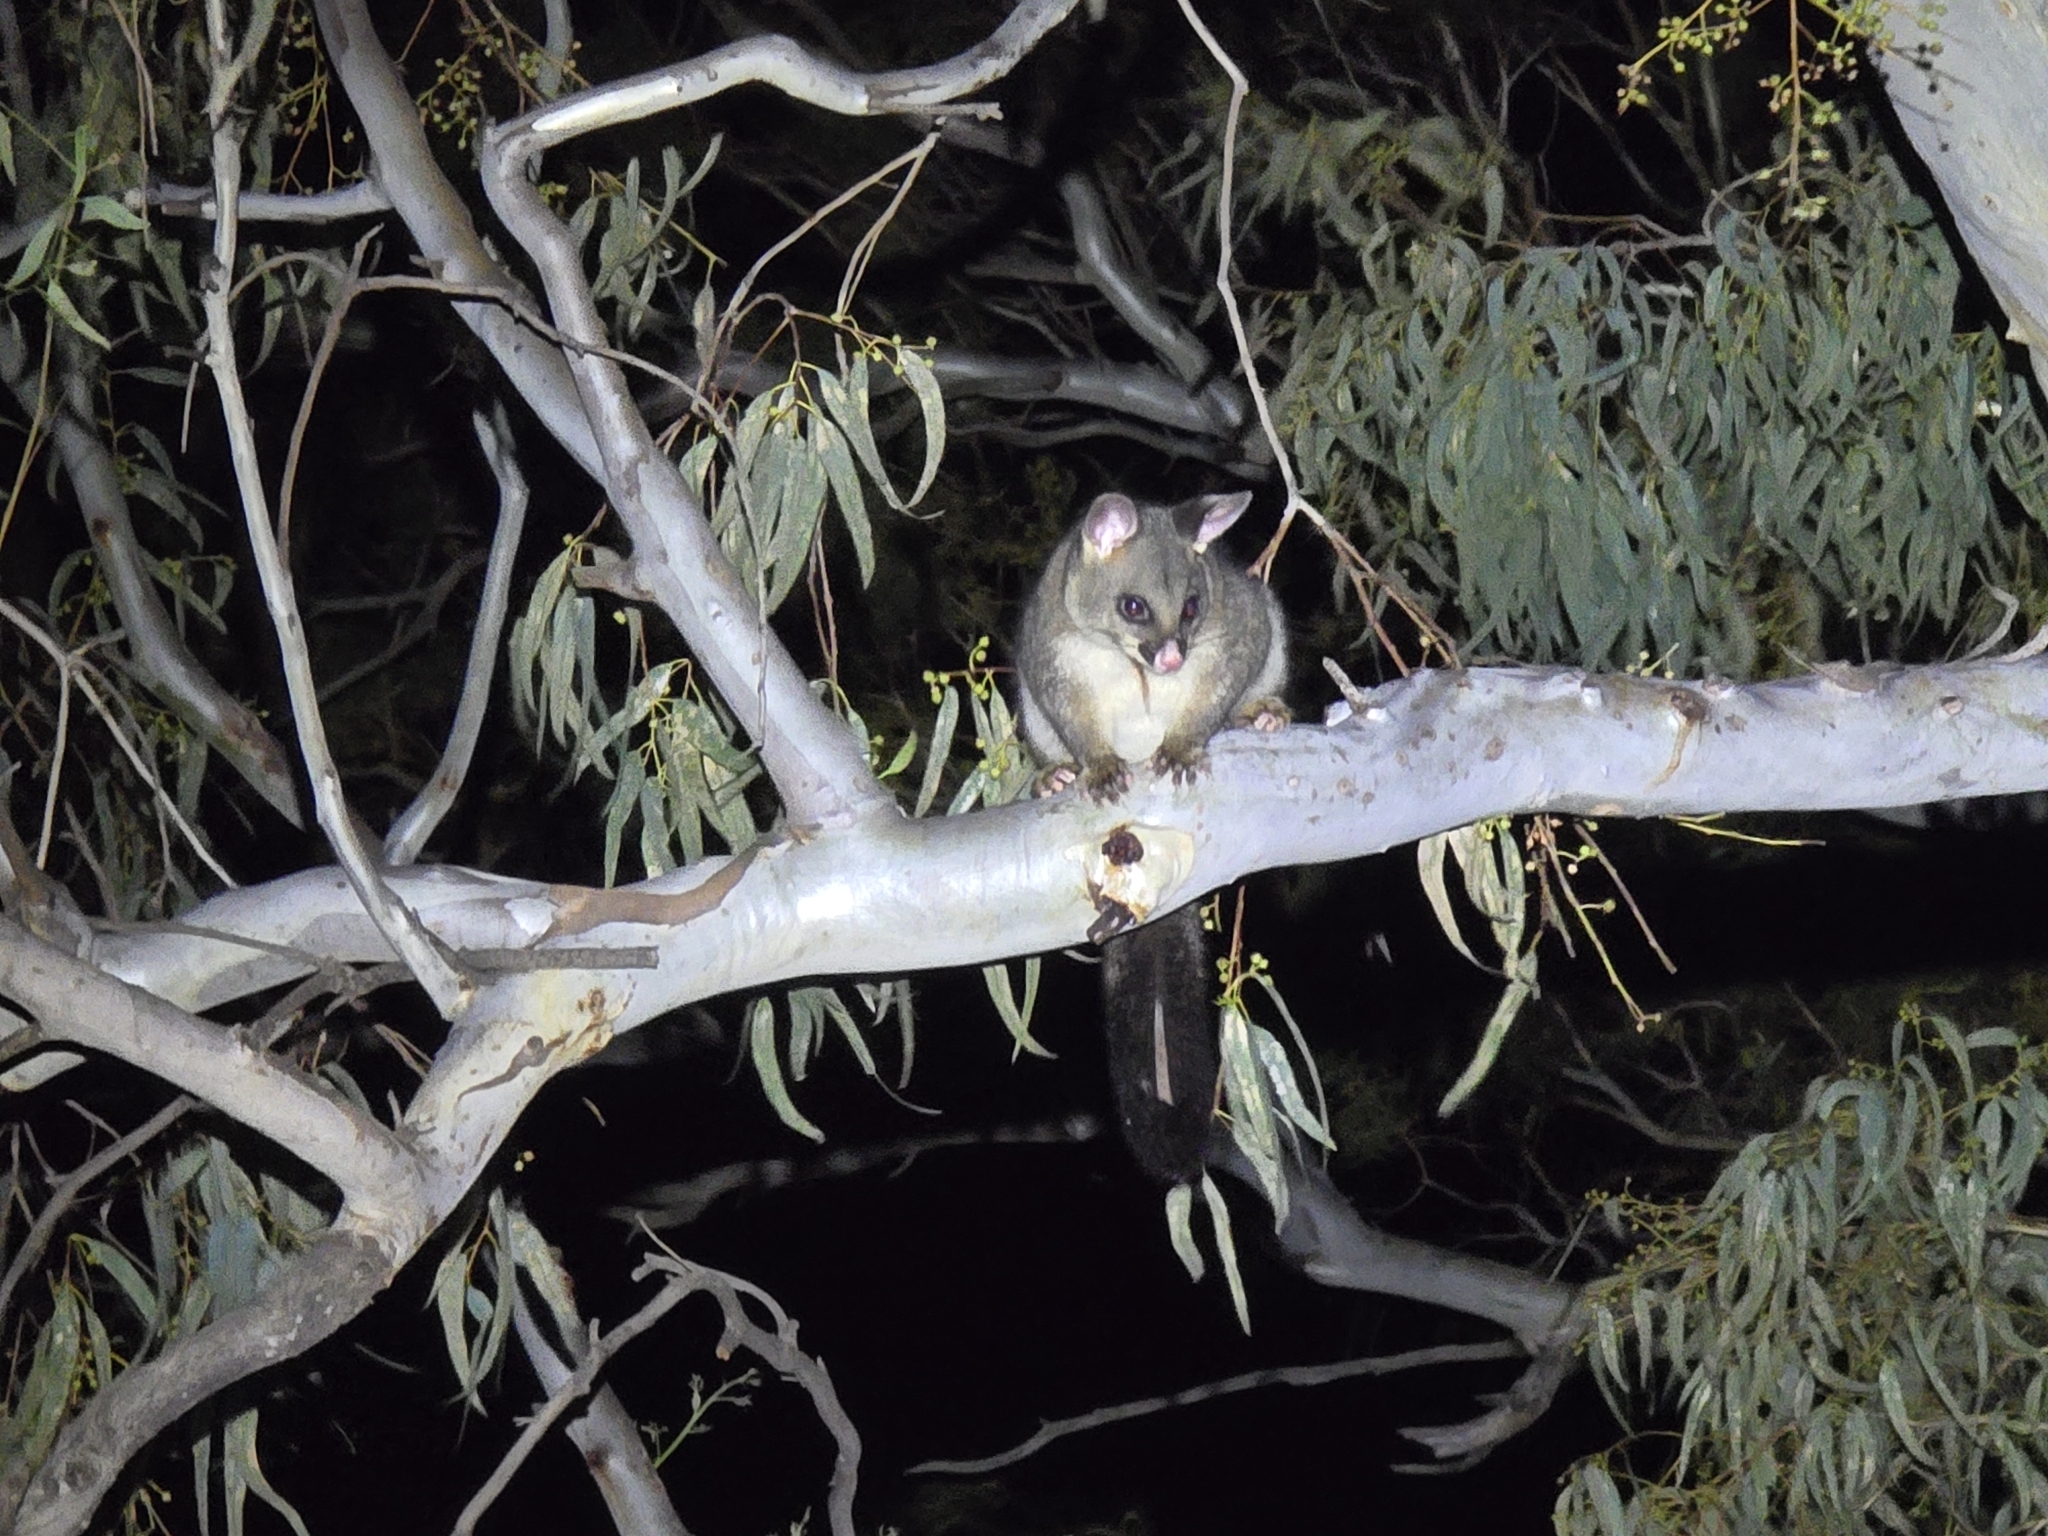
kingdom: Animalia
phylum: Chordata
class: Mammalia
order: Diprotodontia
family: Phalangeridae
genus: Trichosurus
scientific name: Trichosurus vulpecula
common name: Common brushtail
